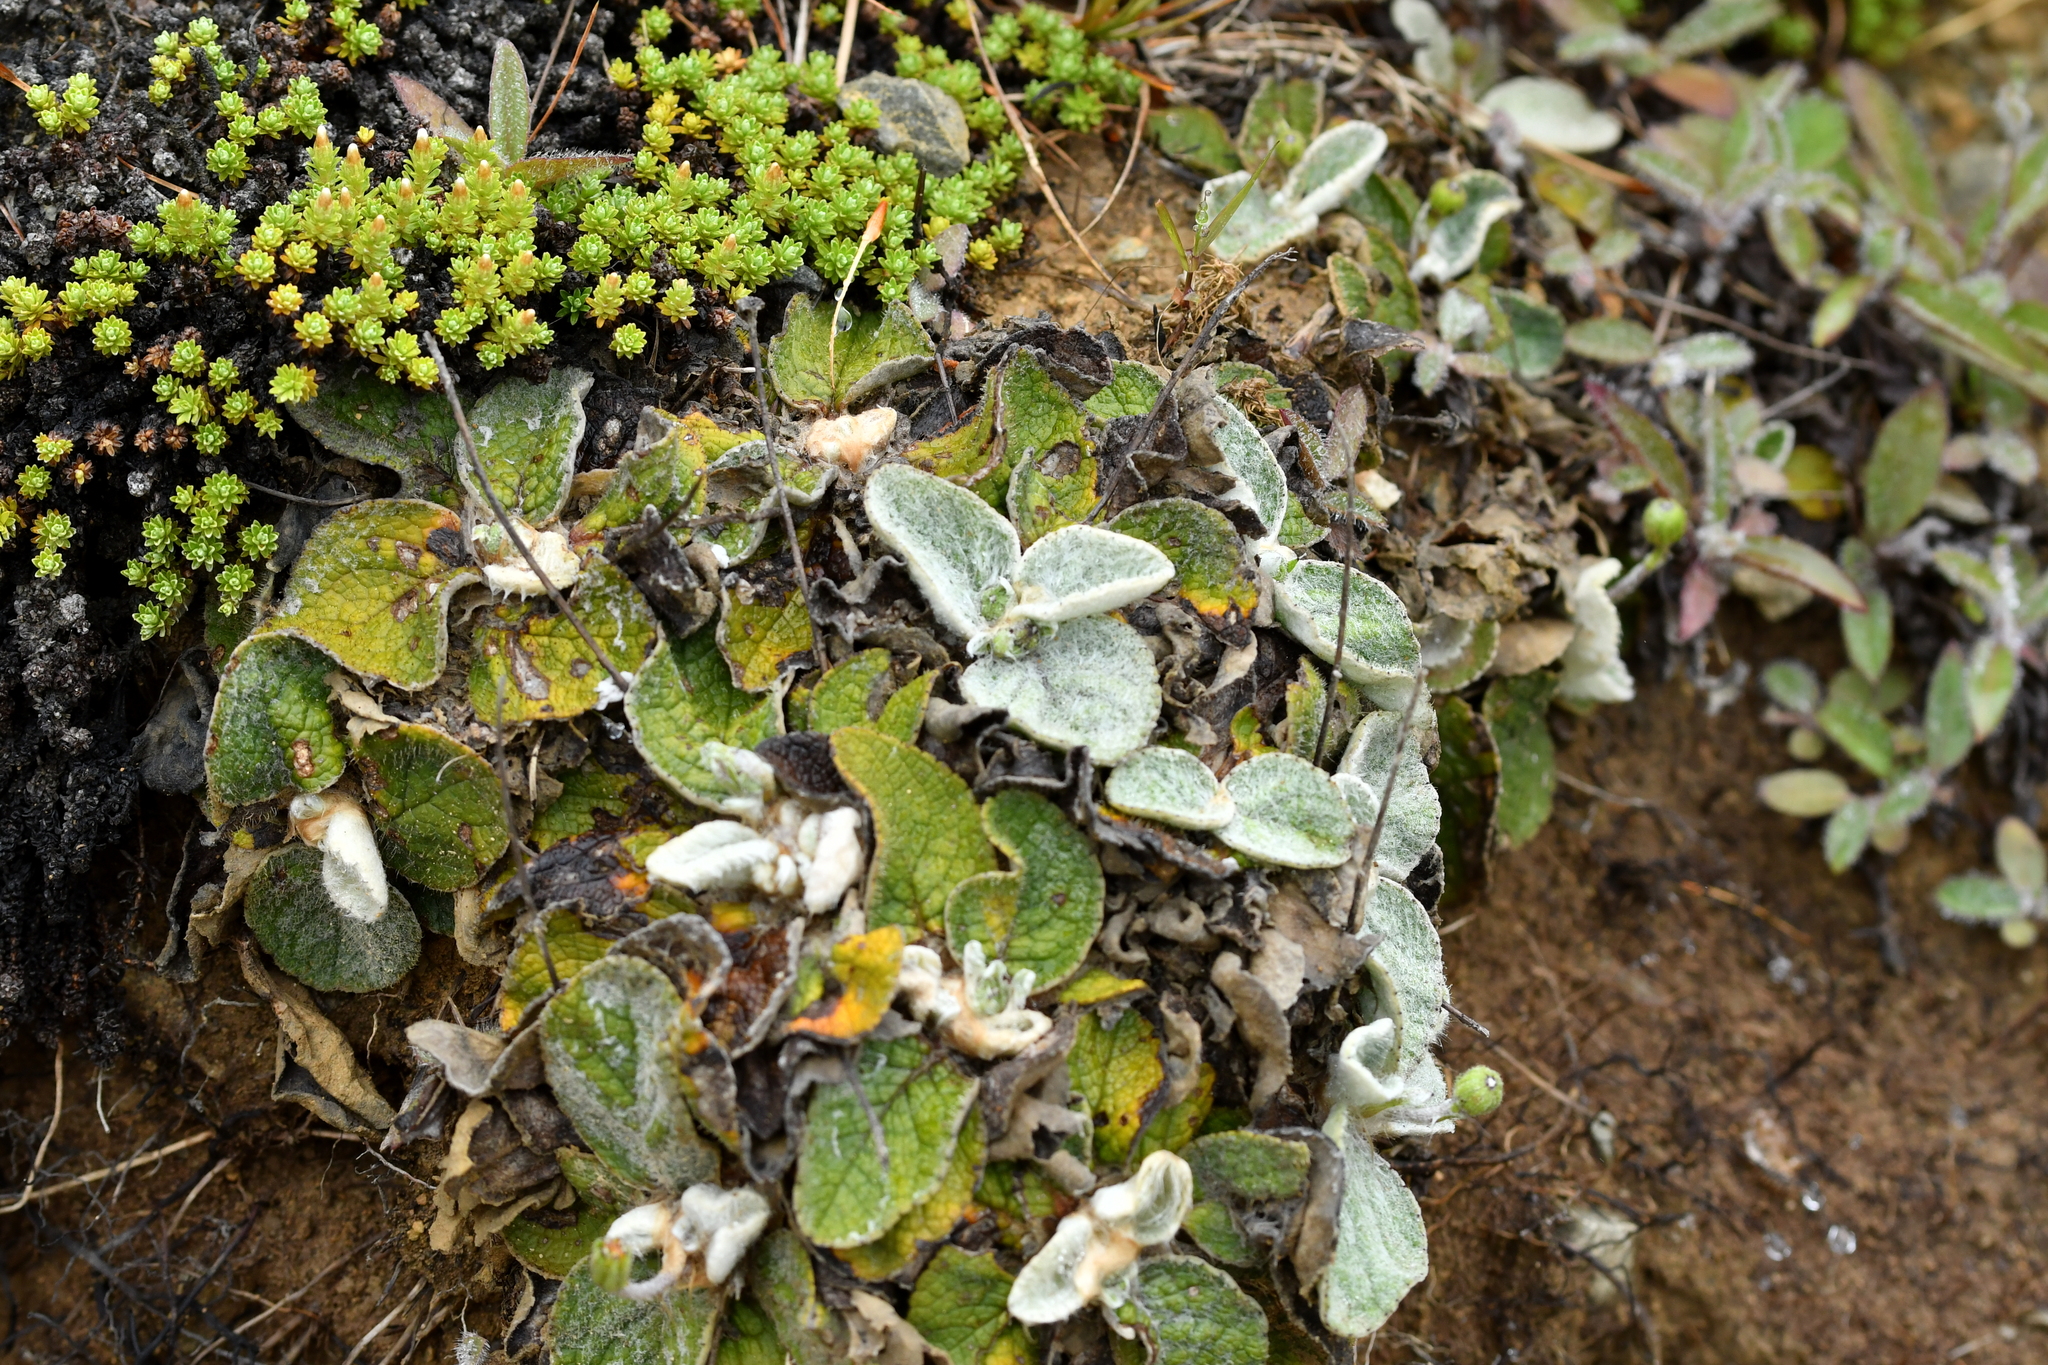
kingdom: Plantae
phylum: Tracheophyta
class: Magnoliopsida
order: Asterales
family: Asteraceae
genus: Brachyglottis
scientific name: Brachyglottis lagopus
